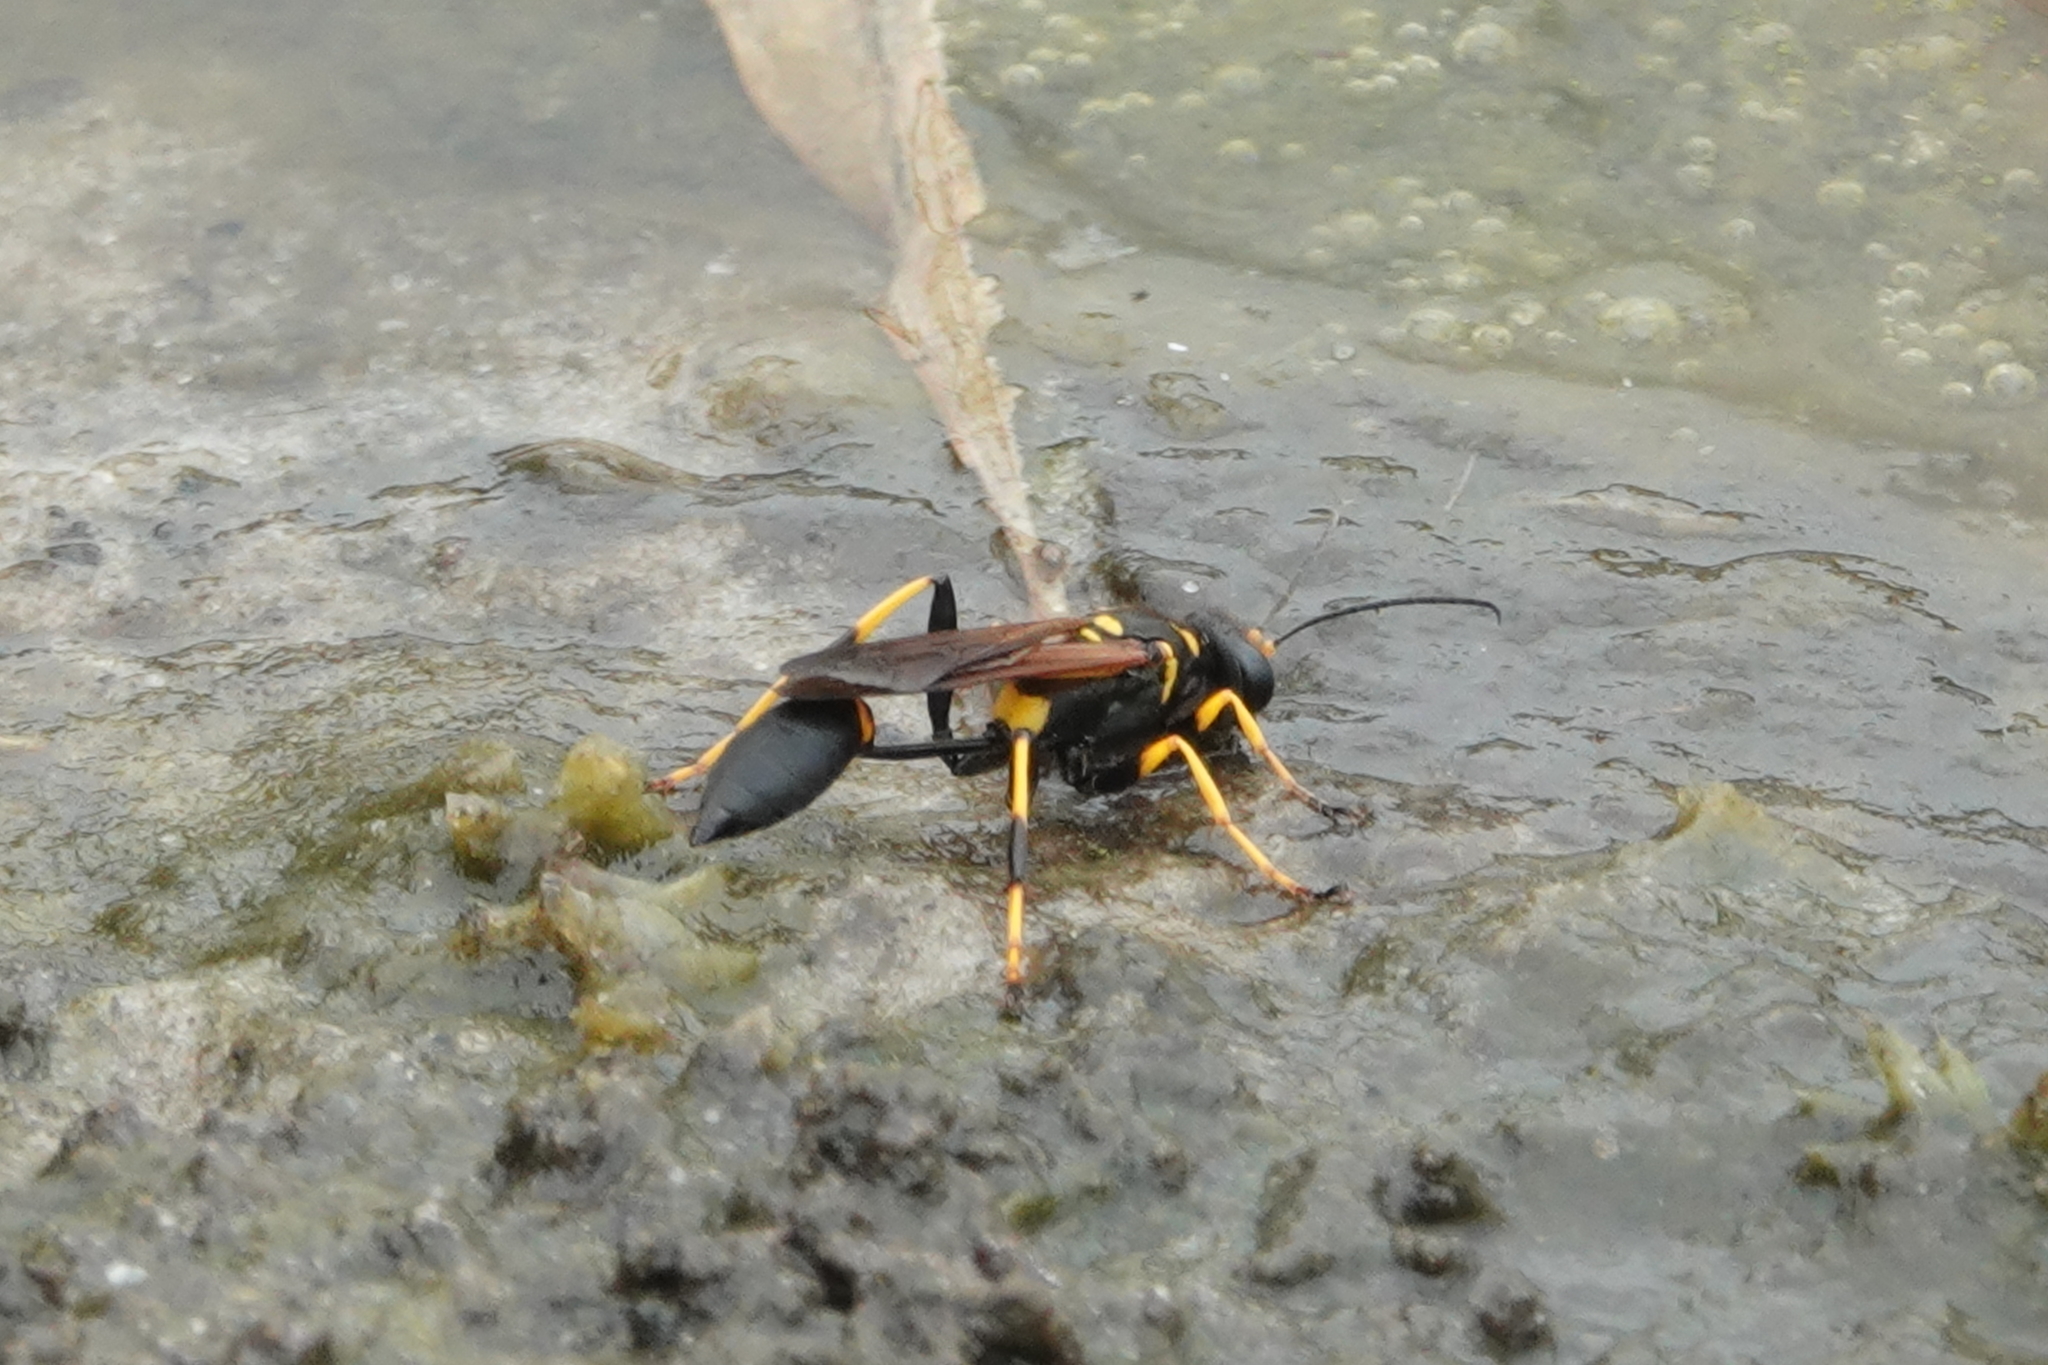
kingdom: Animalia
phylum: Arthropoda
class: Insecta
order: Hymenoptera
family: Sphecidae
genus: Sceliphron
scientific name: Sceliphron caementarium
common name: Mud dauber
